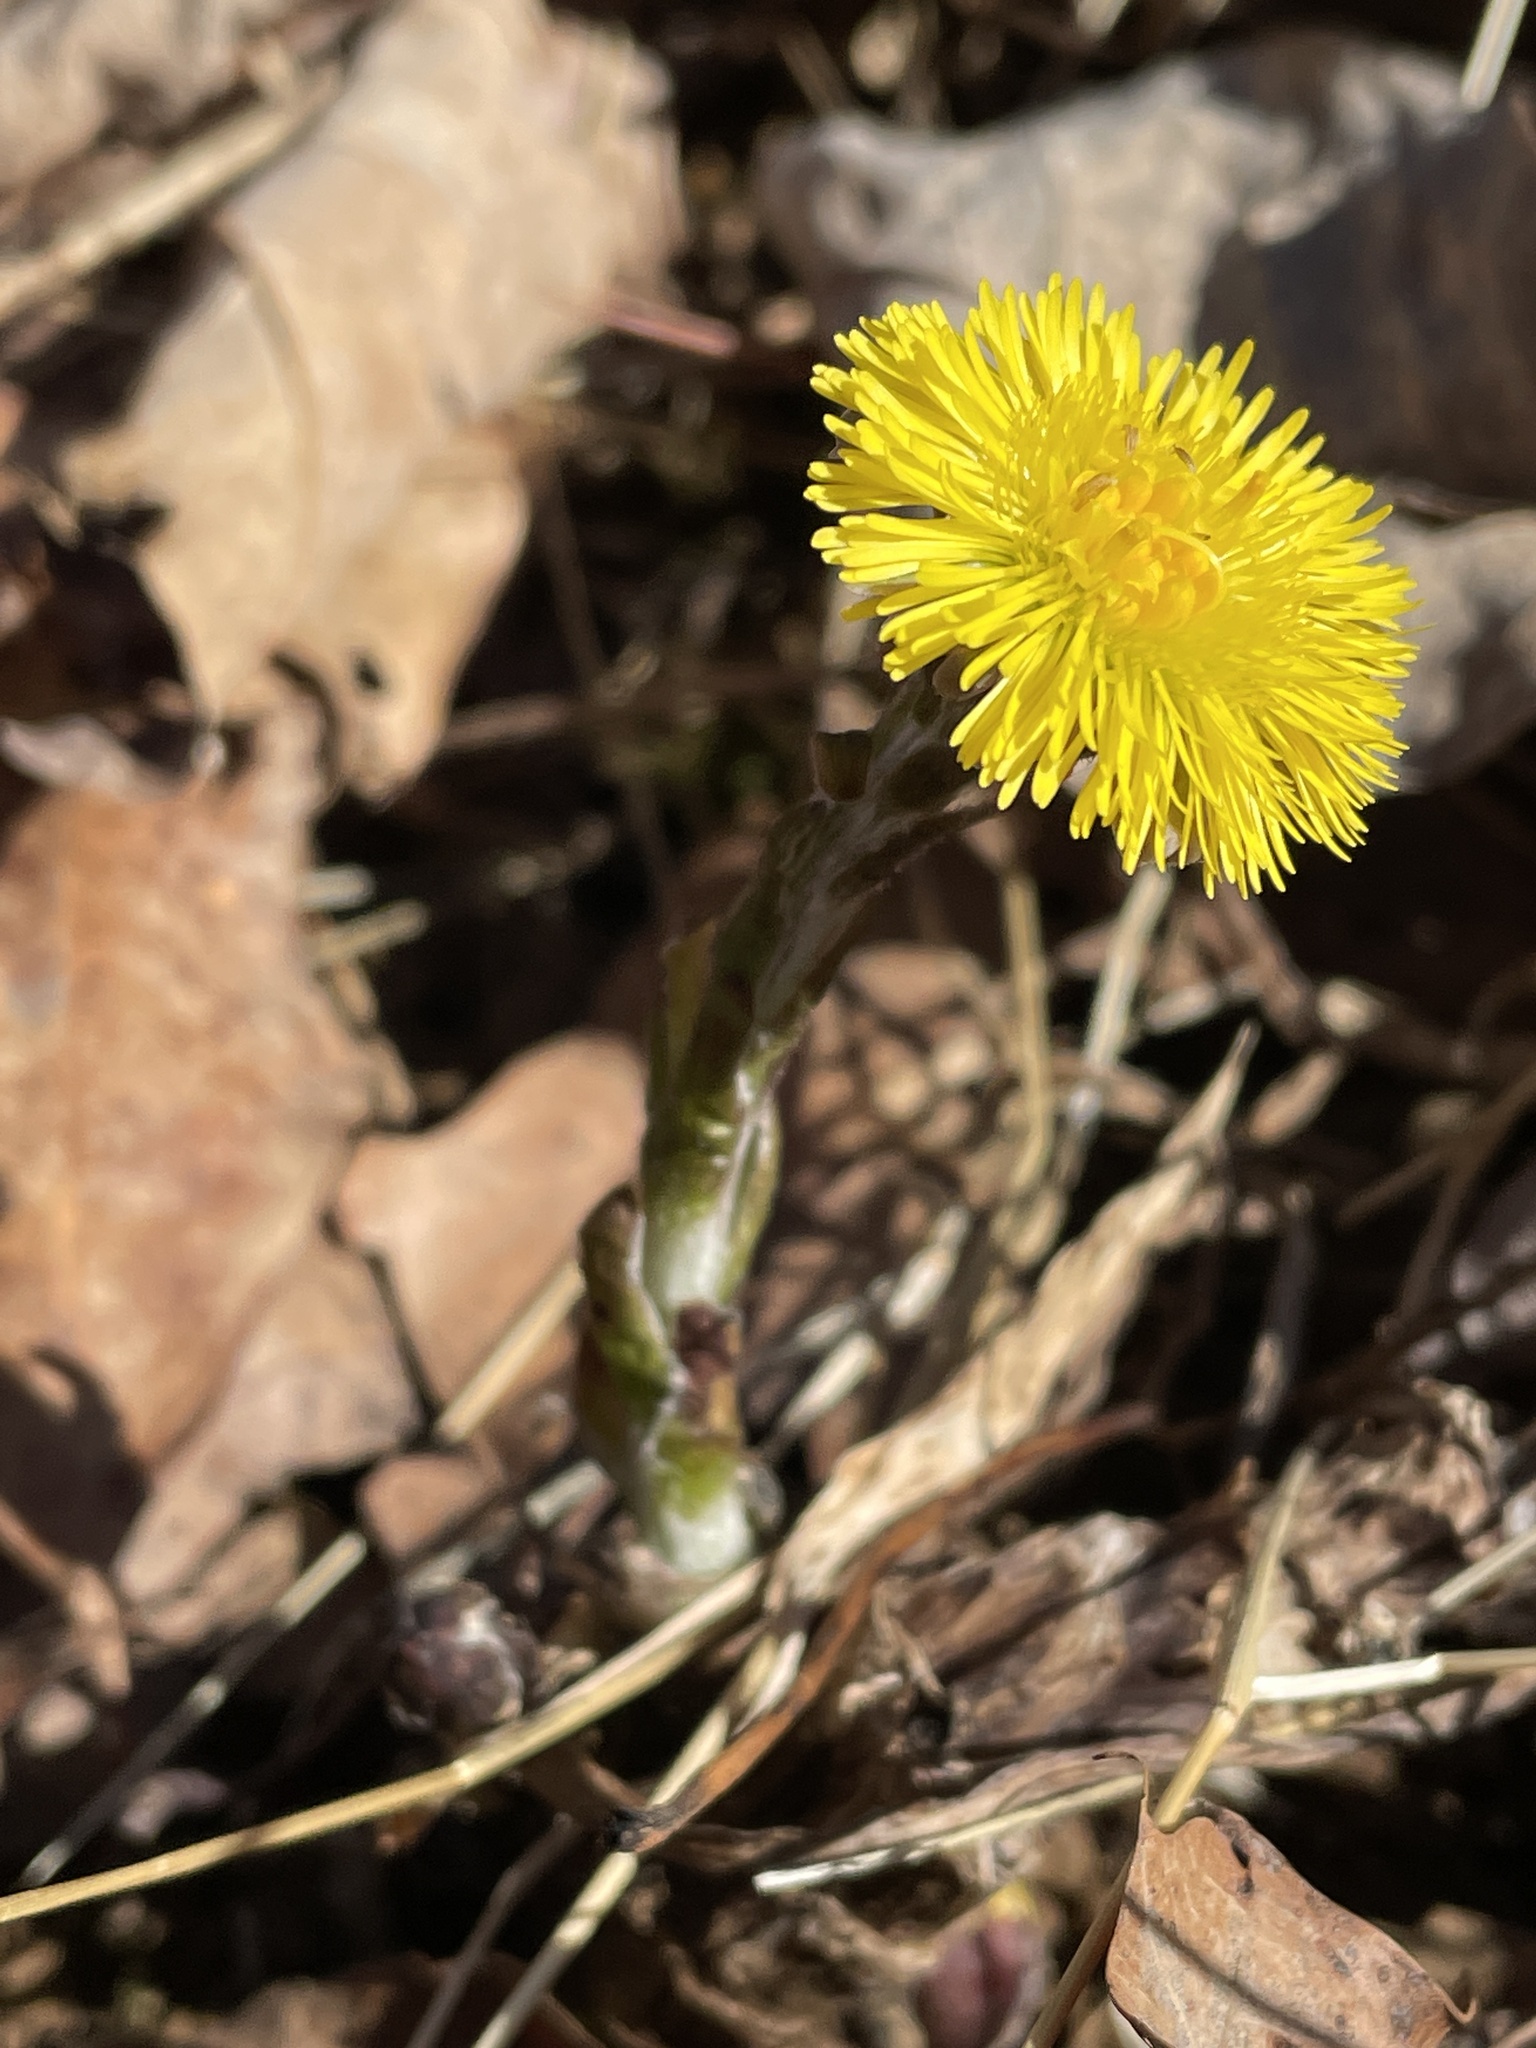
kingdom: Plantae
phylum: Tracheophyta
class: Magnoliopsida
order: Asterales
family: Asteraceae
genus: Tussilago
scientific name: Tussilago farfara
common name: Coltsfoot
